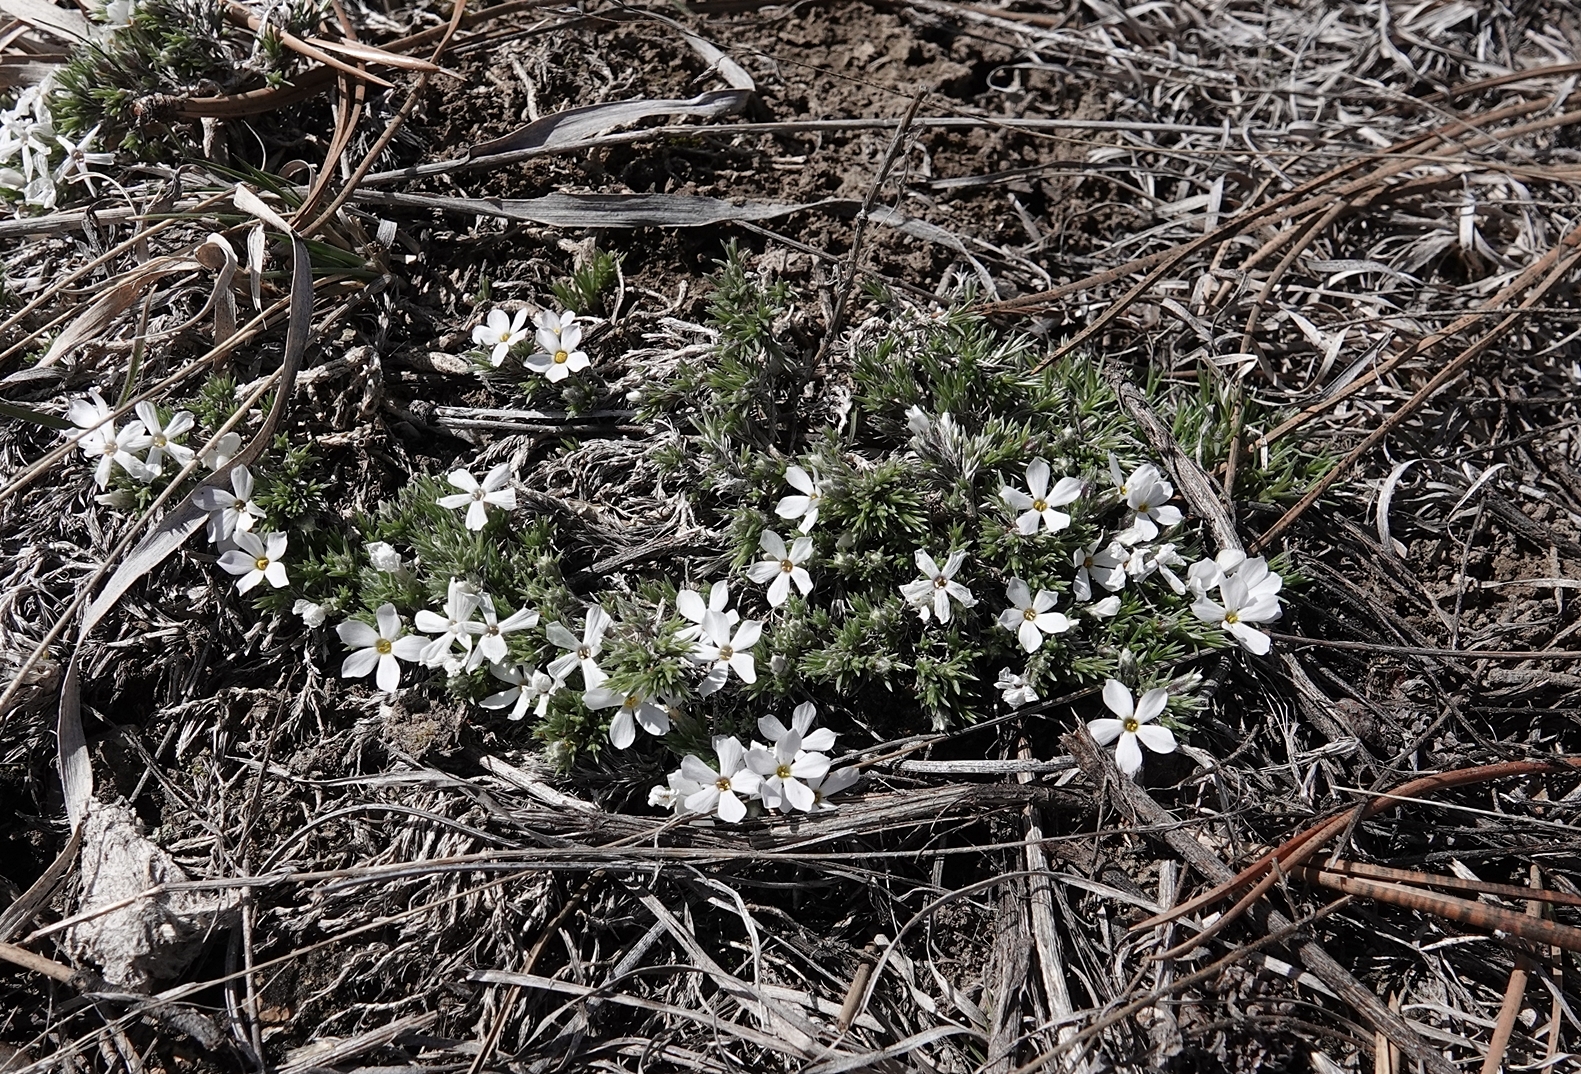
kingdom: Plantae
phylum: Tracheophyta
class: Magnoliopsida
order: Ericales
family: Polemoniaceae
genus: Phlox
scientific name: Phlox hoodii
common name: Moss phlox
